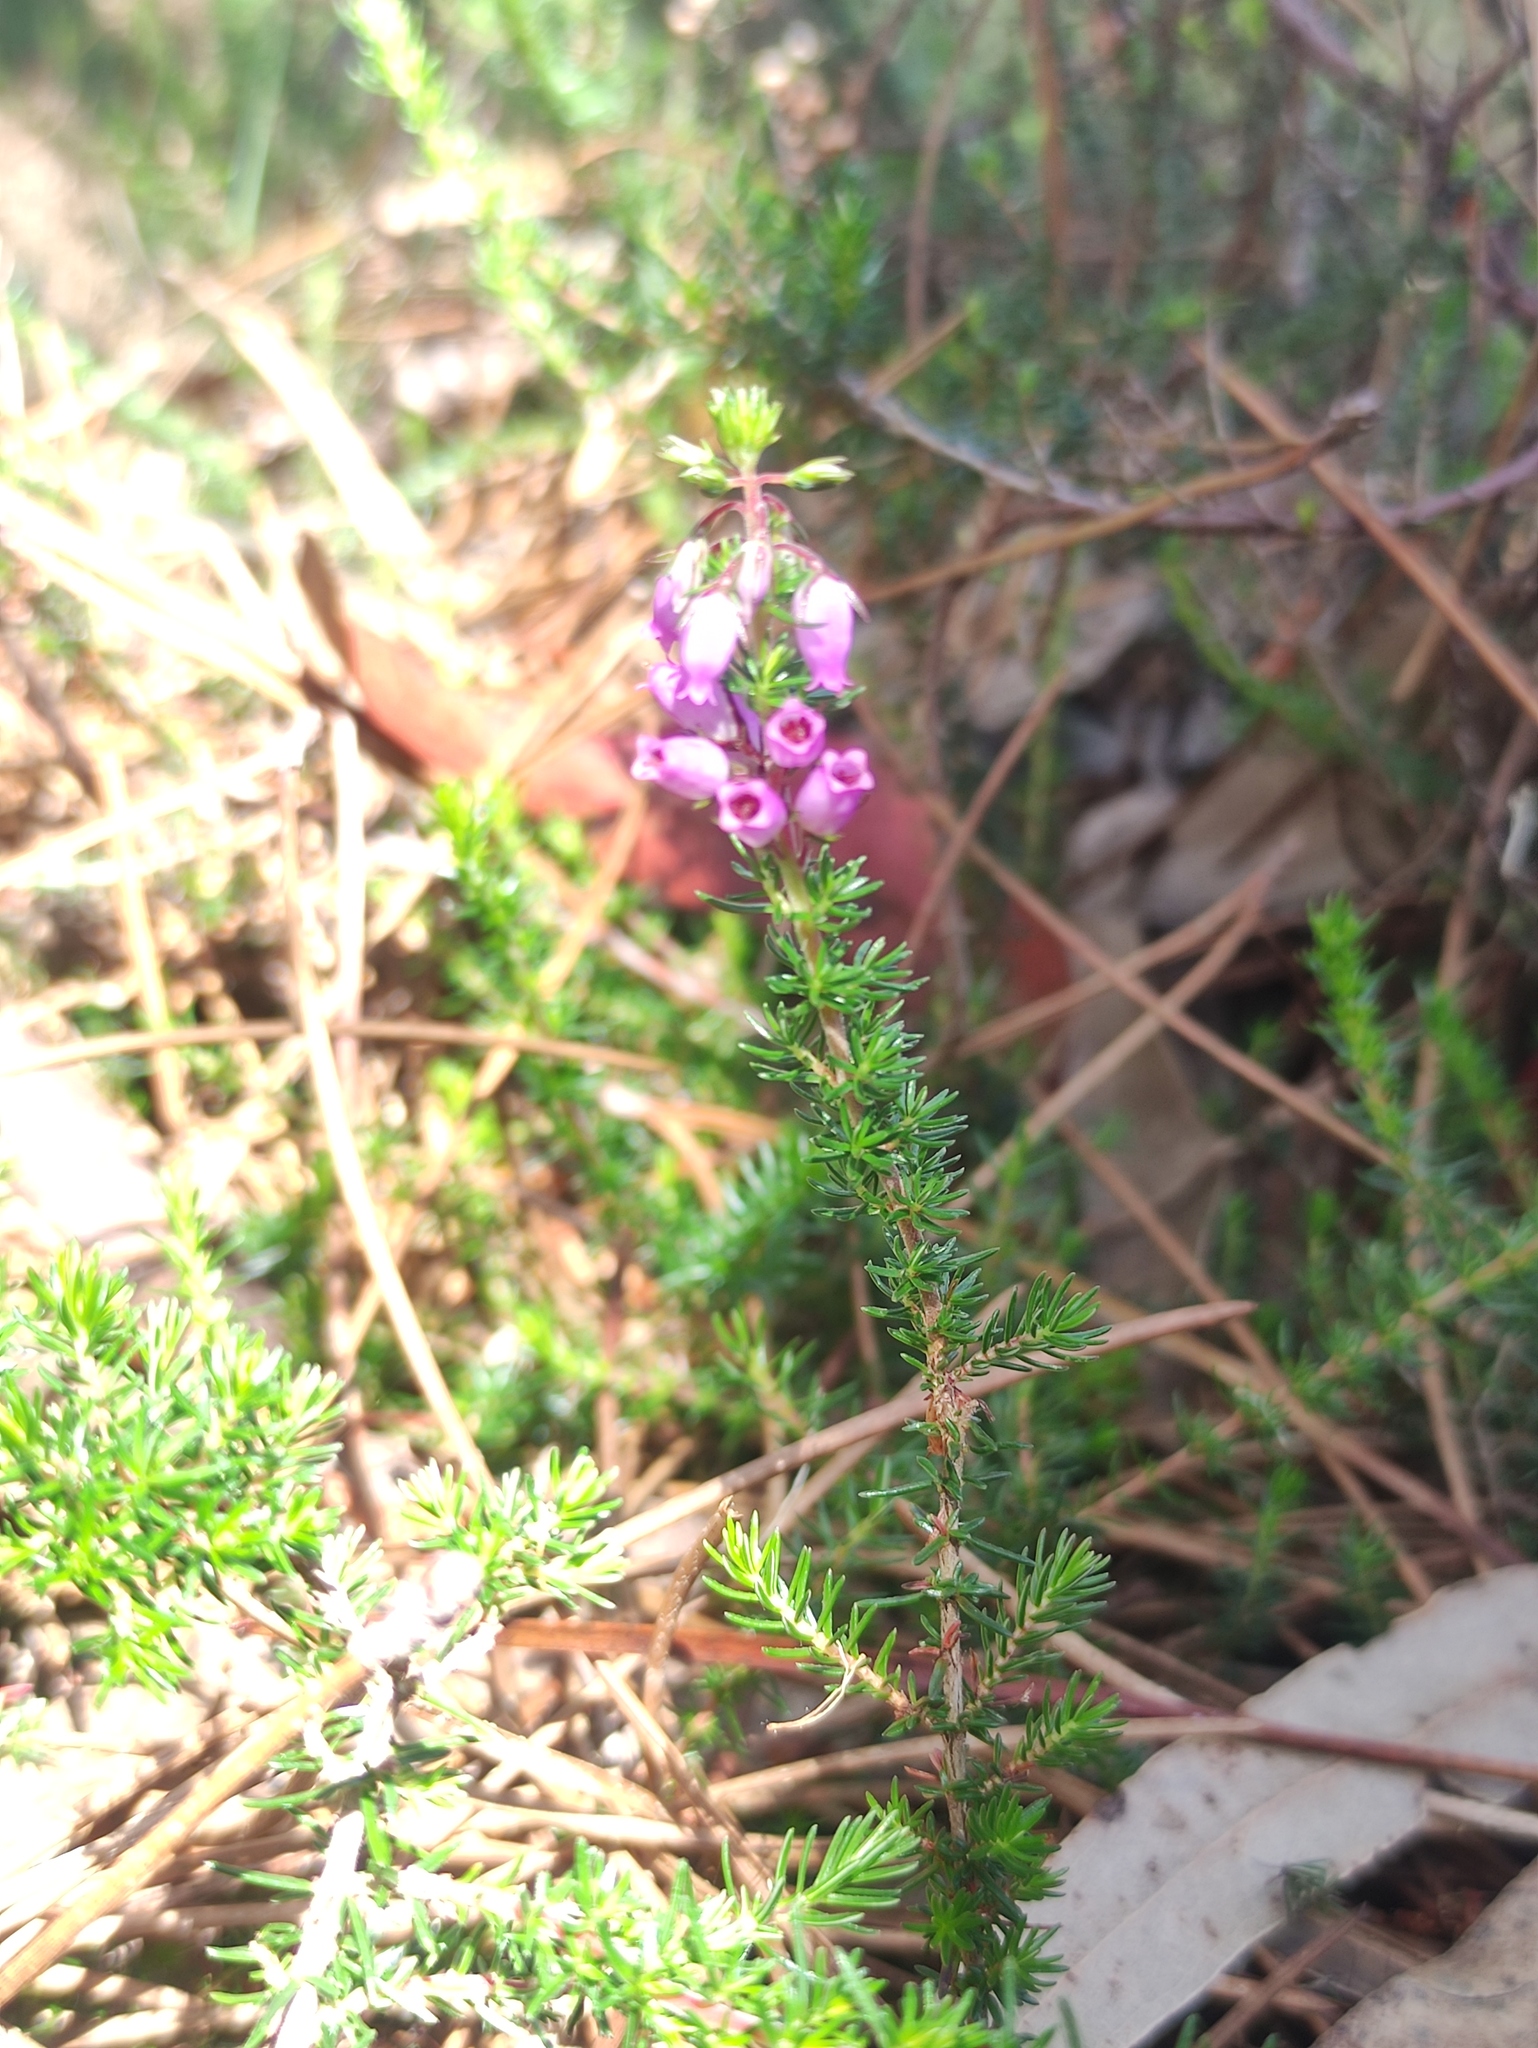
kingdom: Plantae
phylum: Tracheophyta
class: Magnoliopsida
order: Ericales
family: Ericaceae
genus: Erica
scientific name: Erica cinerea
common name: Bell heather
